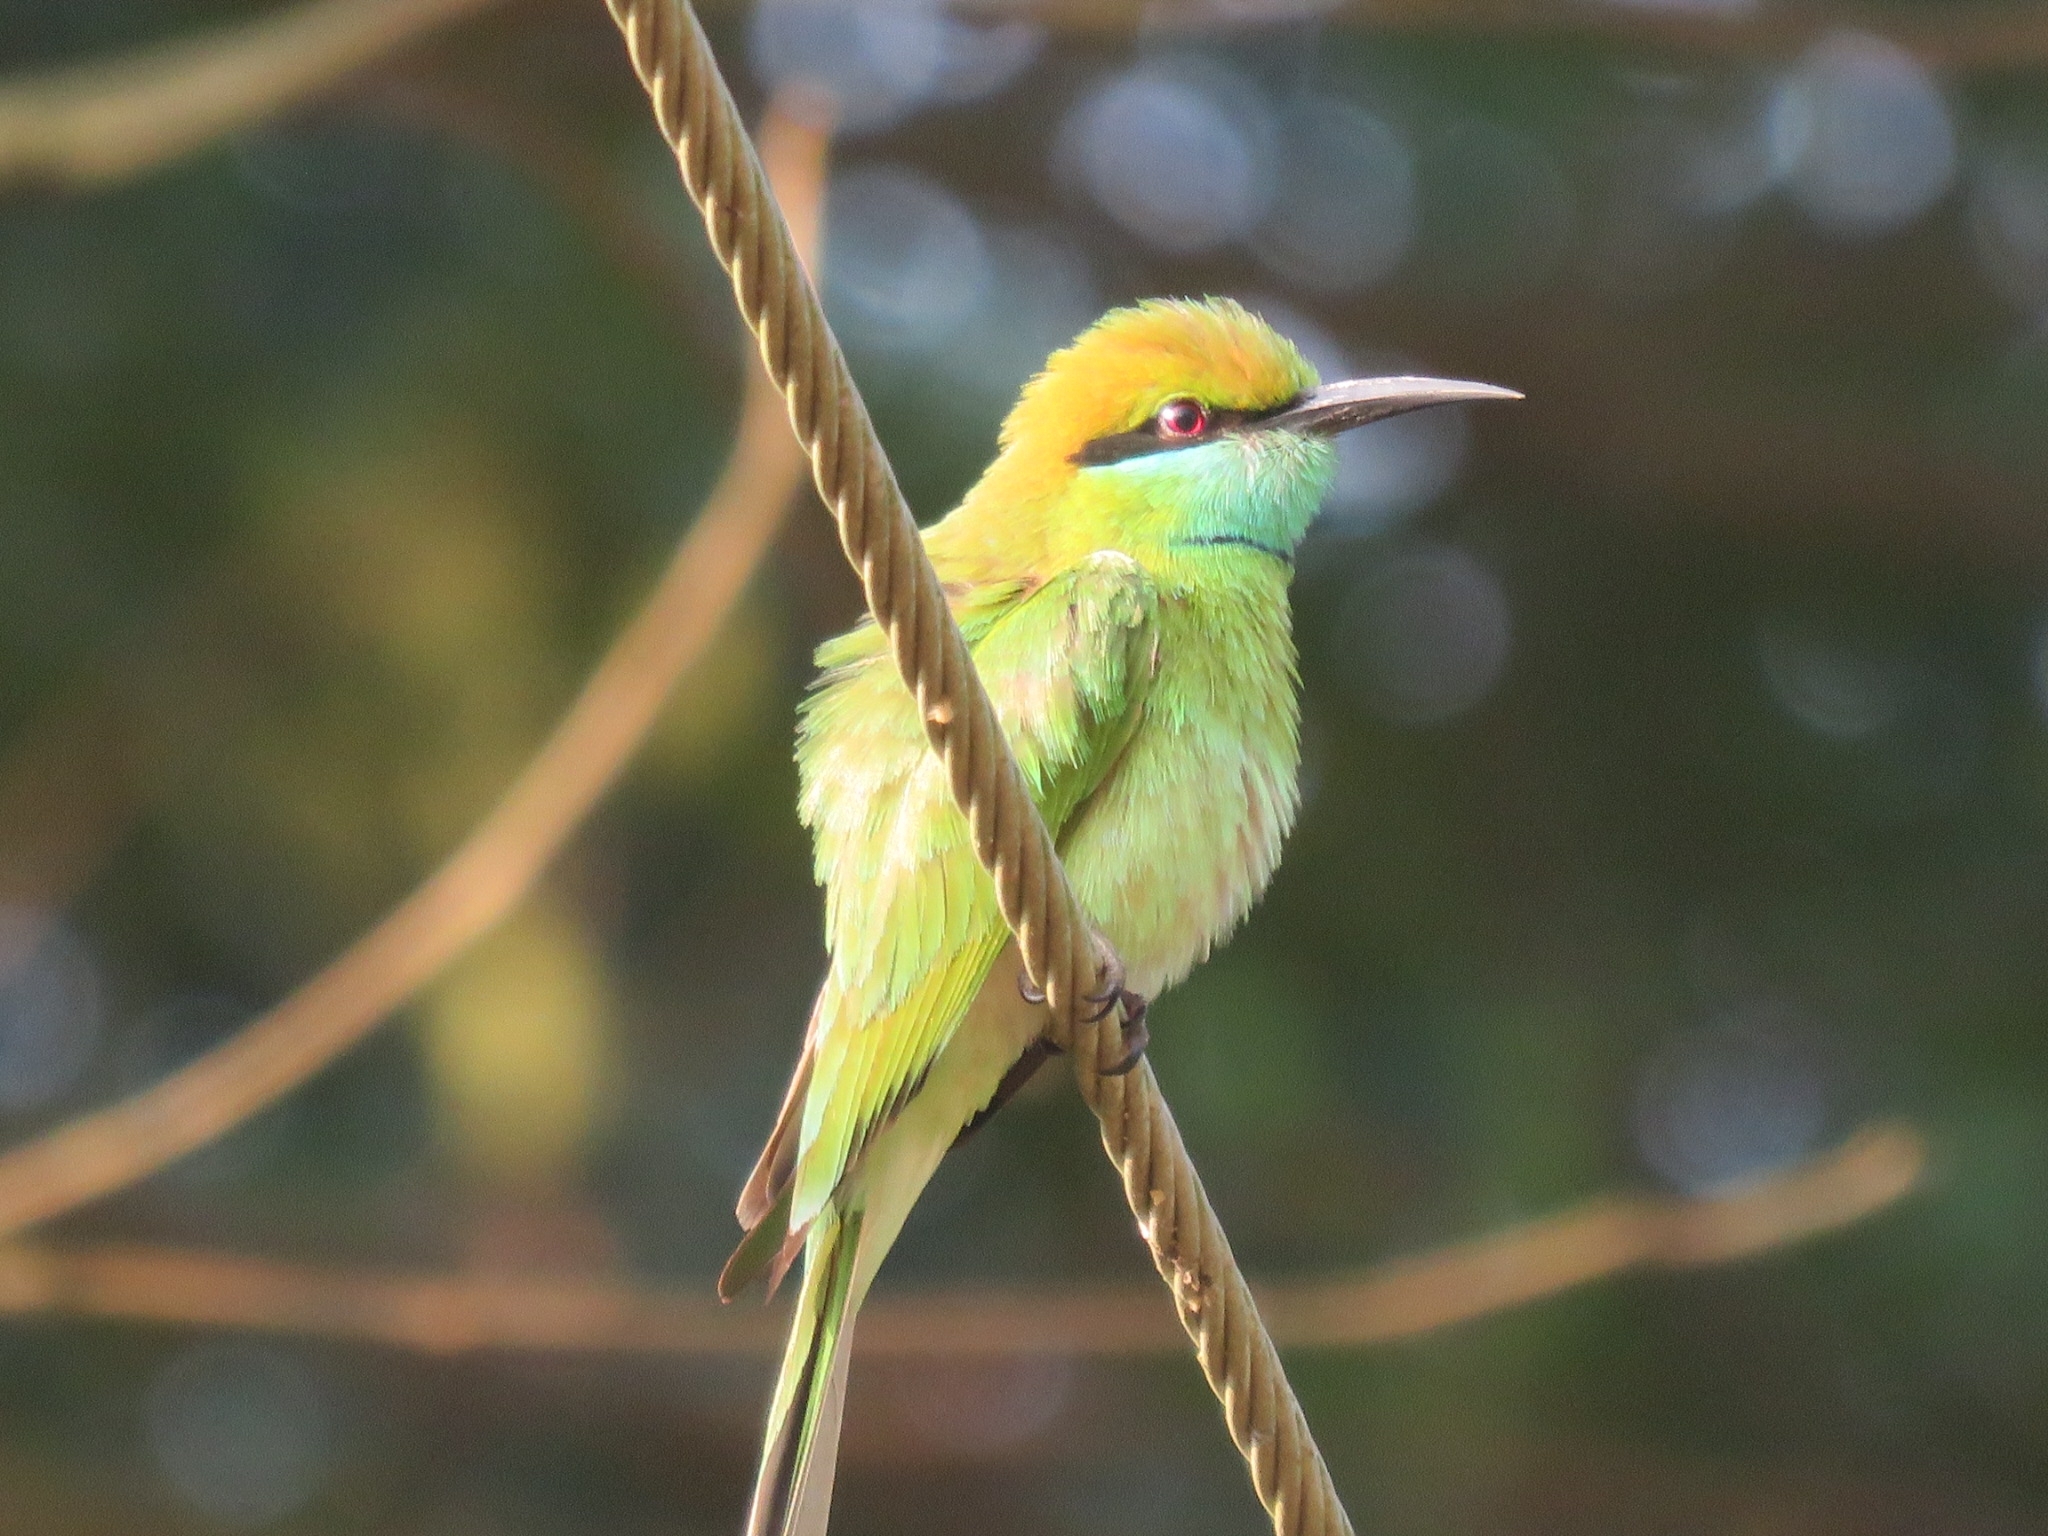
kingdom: Animalia
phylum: Chordata
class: Aves
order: Coraciiformes
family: Meropidae
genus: Merops
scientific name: Merops orientalis
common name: Green bee-eater
